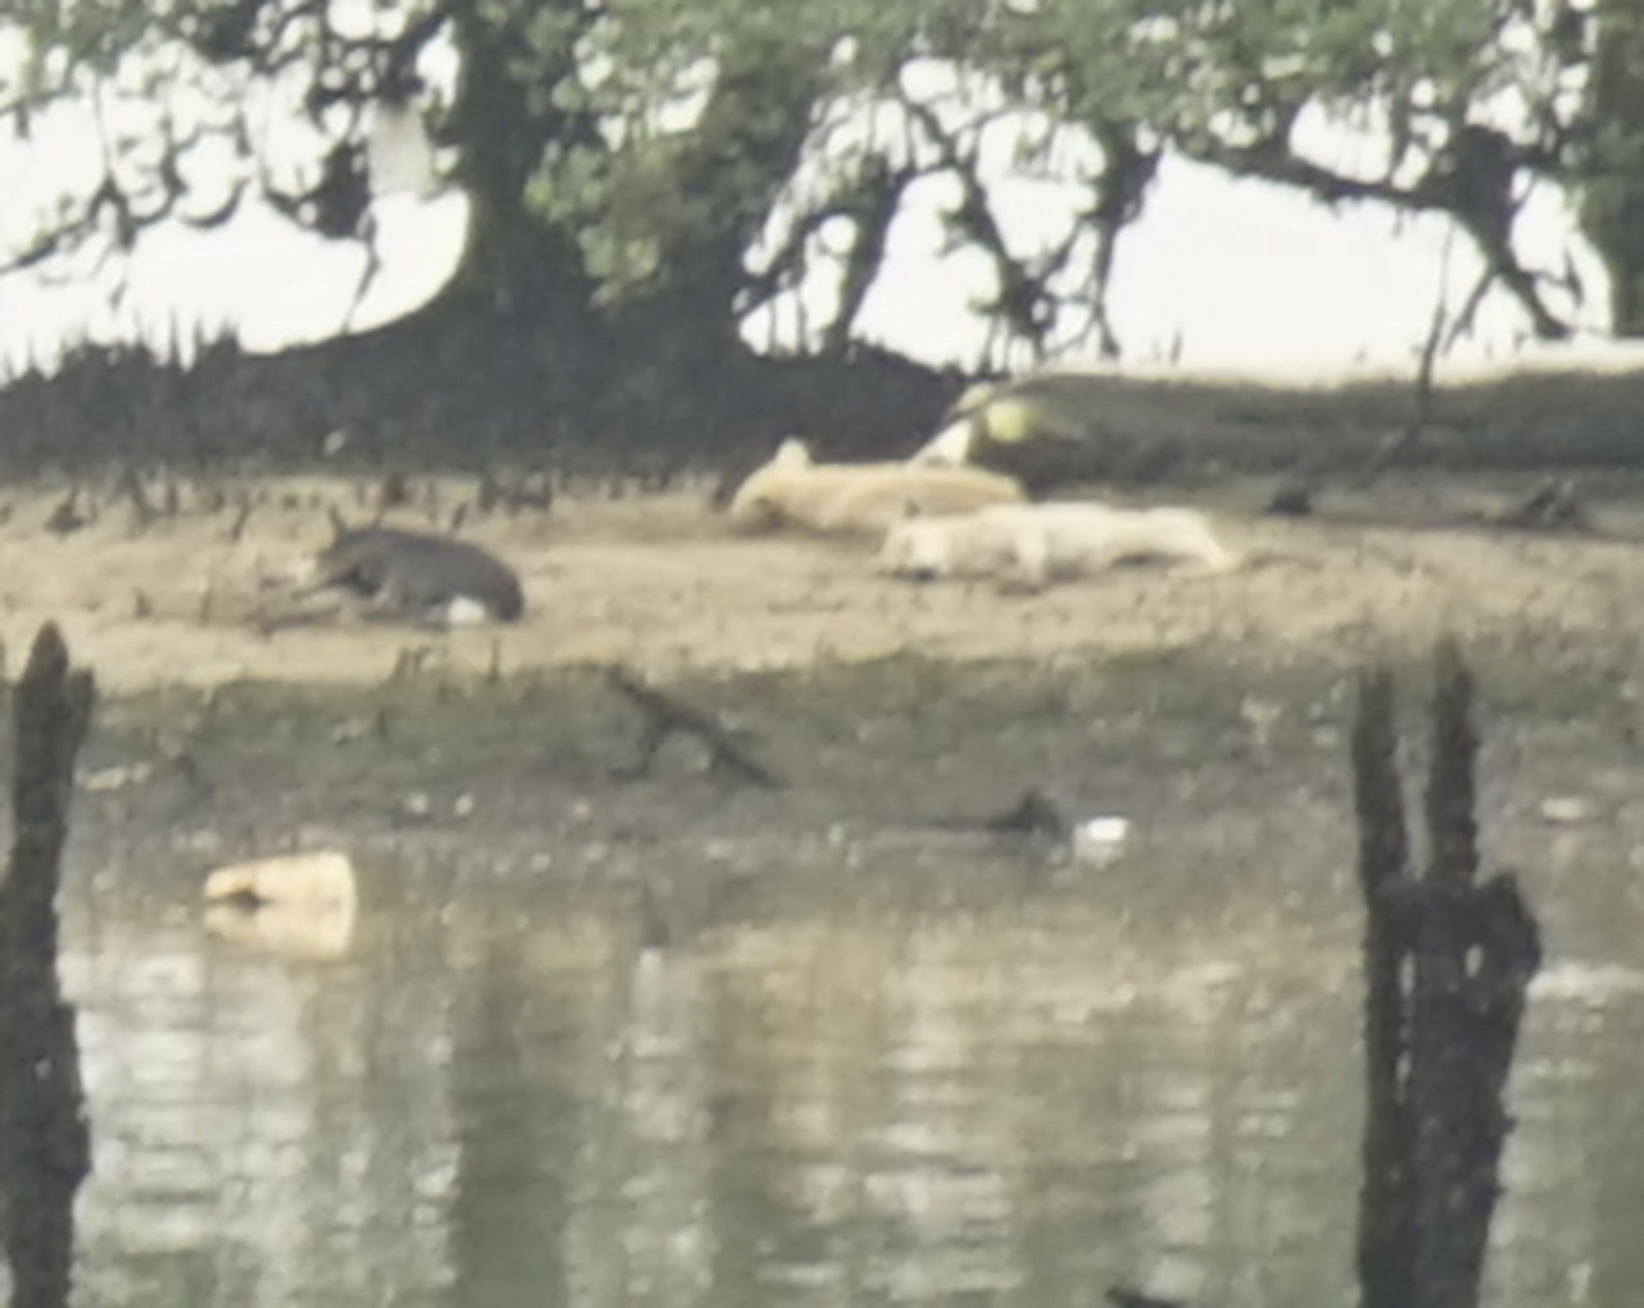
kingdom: Animalia
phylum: Chordata
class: Mammalia
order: Carnivora
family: Canidae
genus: Canis
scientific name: Canis lupus
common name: Gray wolf
